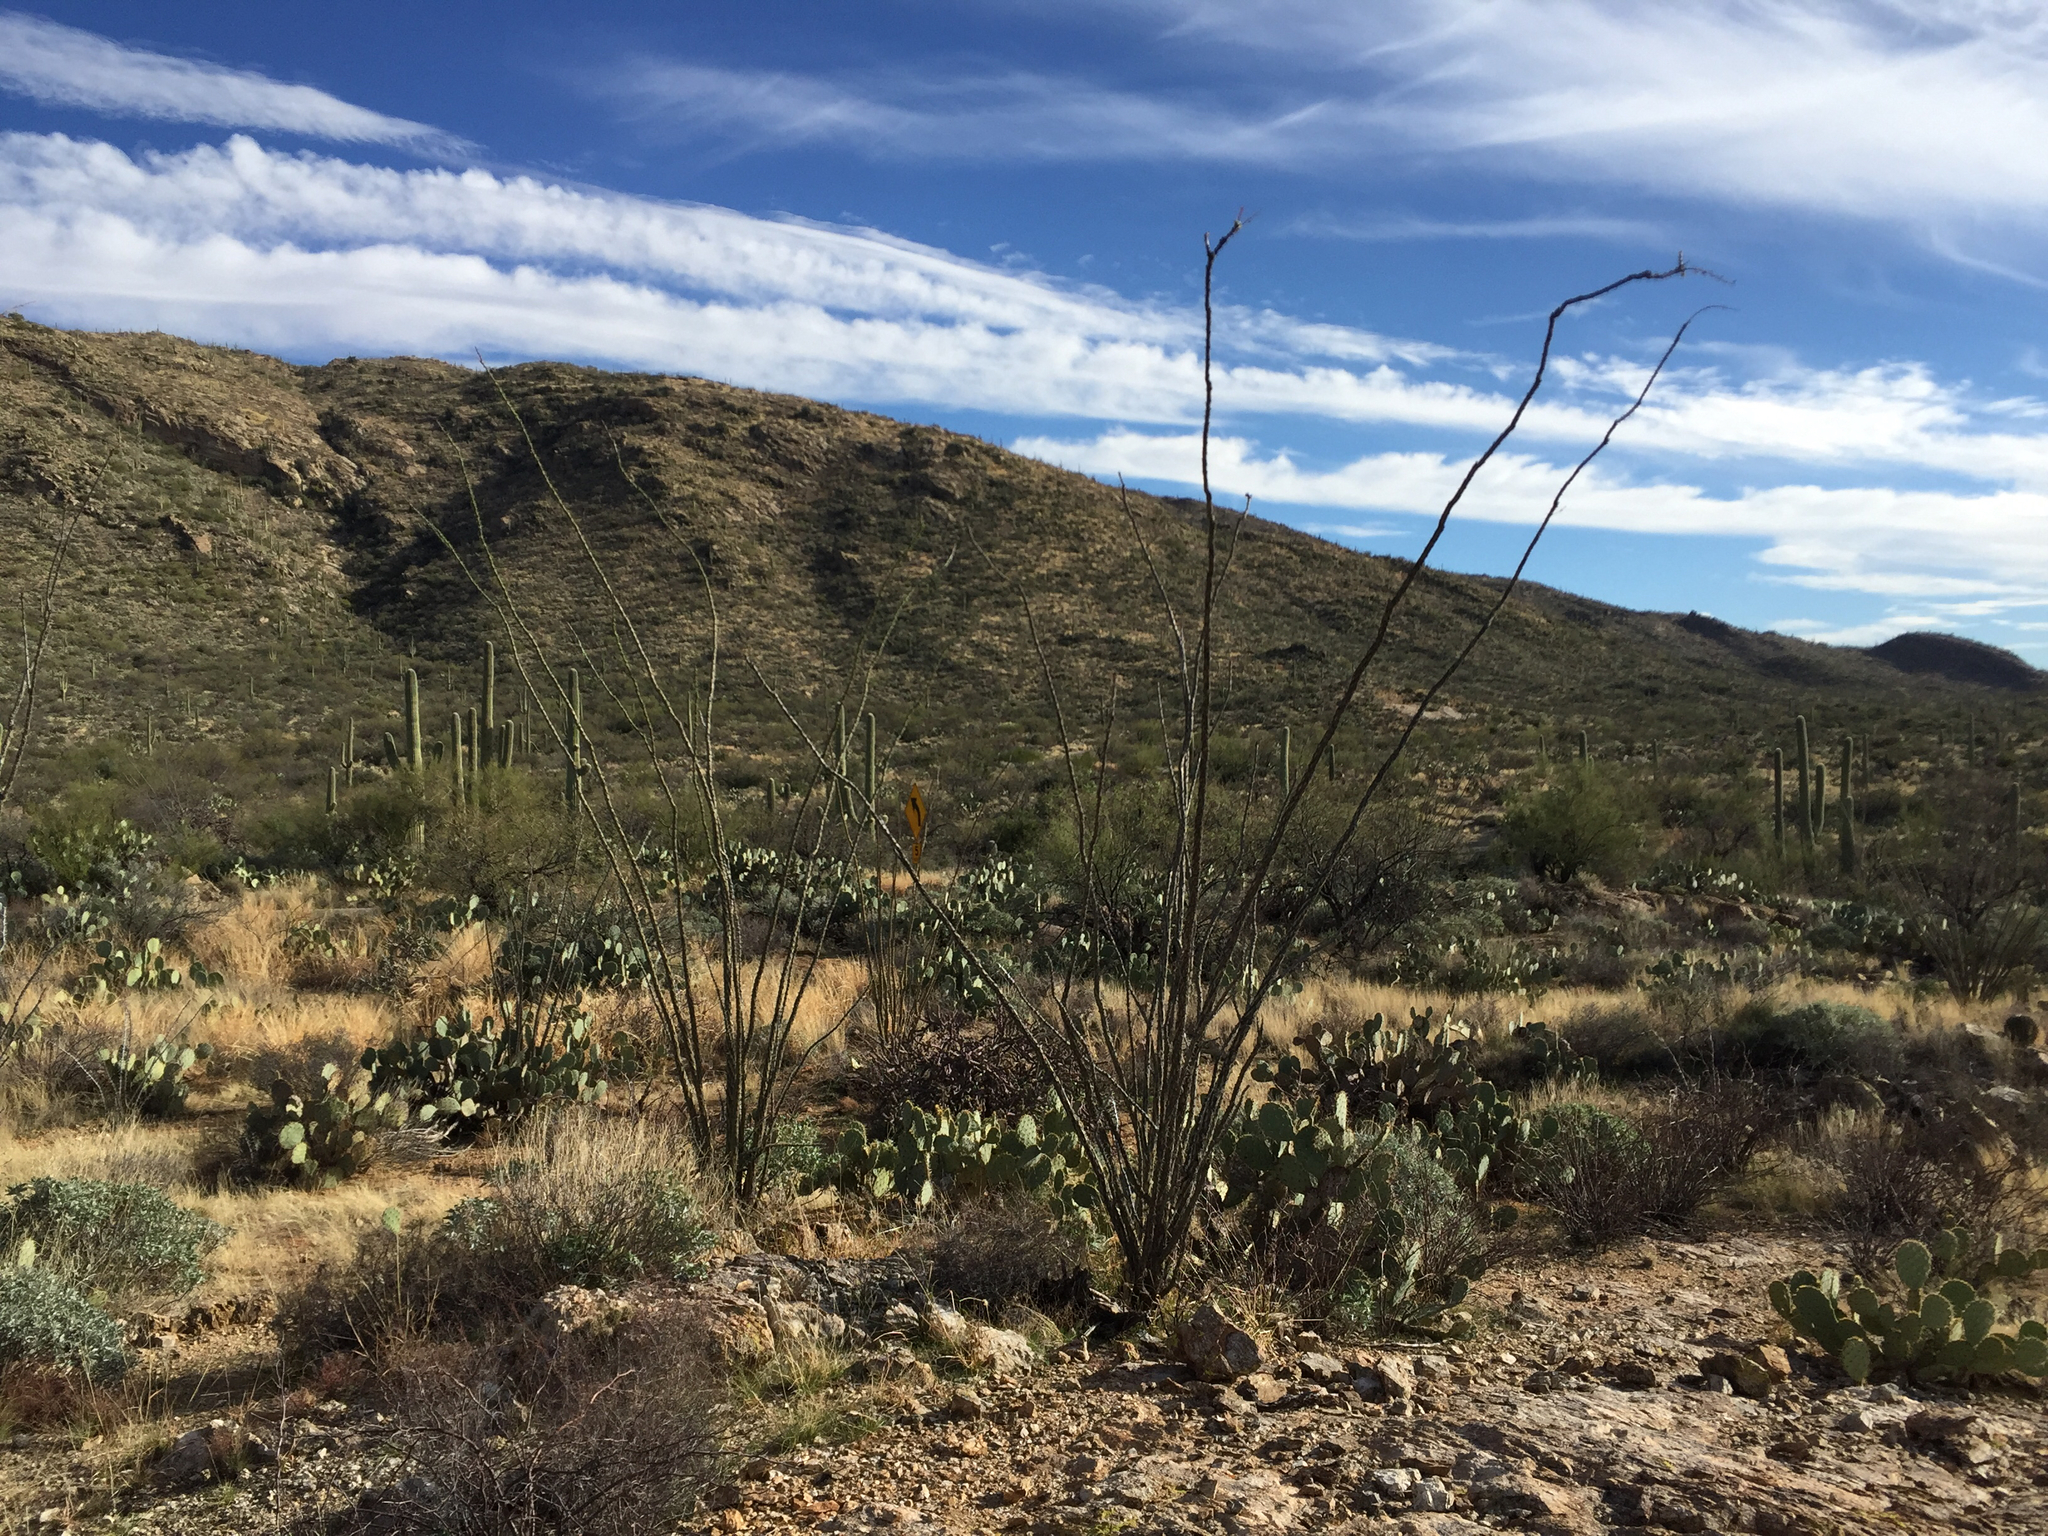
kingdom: Plantae
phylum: Tracheophyta
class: Magnoliopsida
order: Ericales
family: Fouquieriaceae
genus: Fouquieria
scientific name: Fouquieria splendens
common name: Vine-cactus
